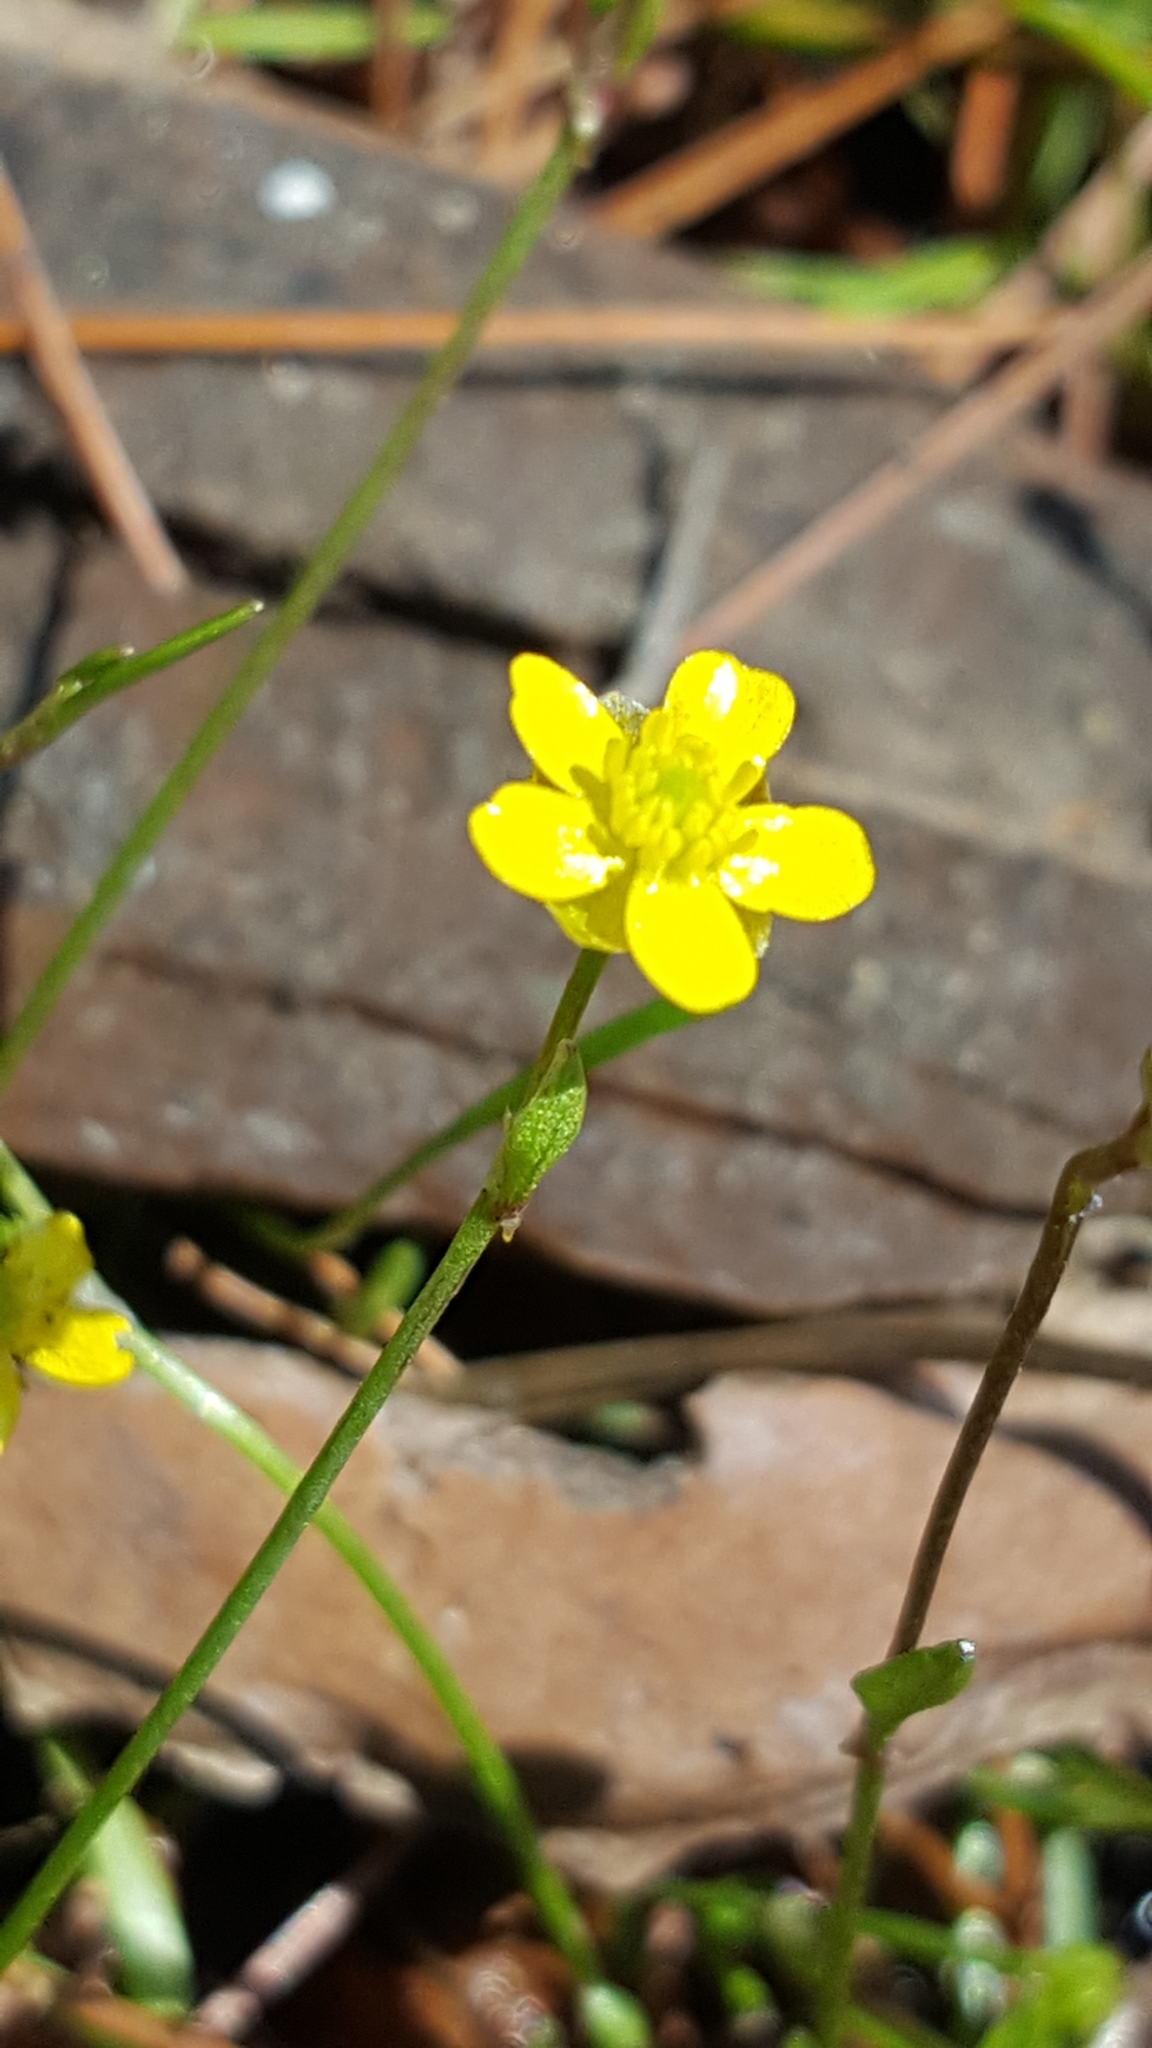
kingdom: Plantae
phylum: Tracheophyta
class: Magnoliopsida
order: Ranunculales
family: Ranunculaceae
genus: Ranunculus
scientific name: Ranunculus flammula
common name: Lesser spearwort
